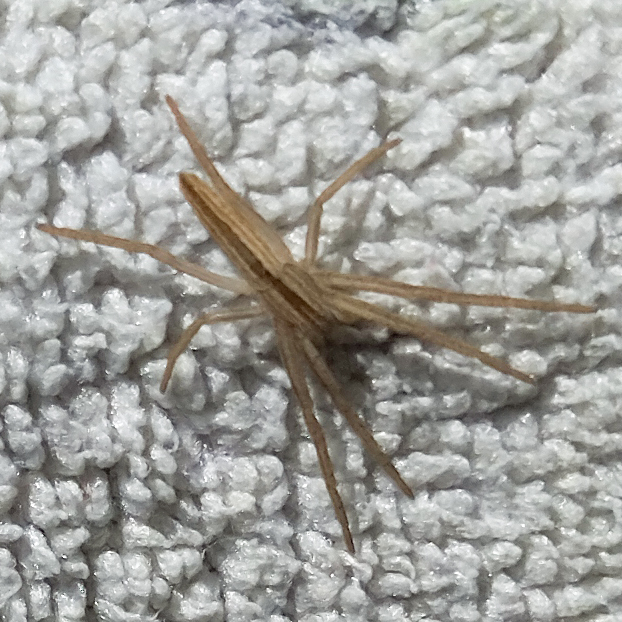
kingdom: Animalia
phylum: Arthropoda
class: Arachnida
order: Araneae
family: Philodromidae
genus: Tibellus
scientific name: Tibellus
